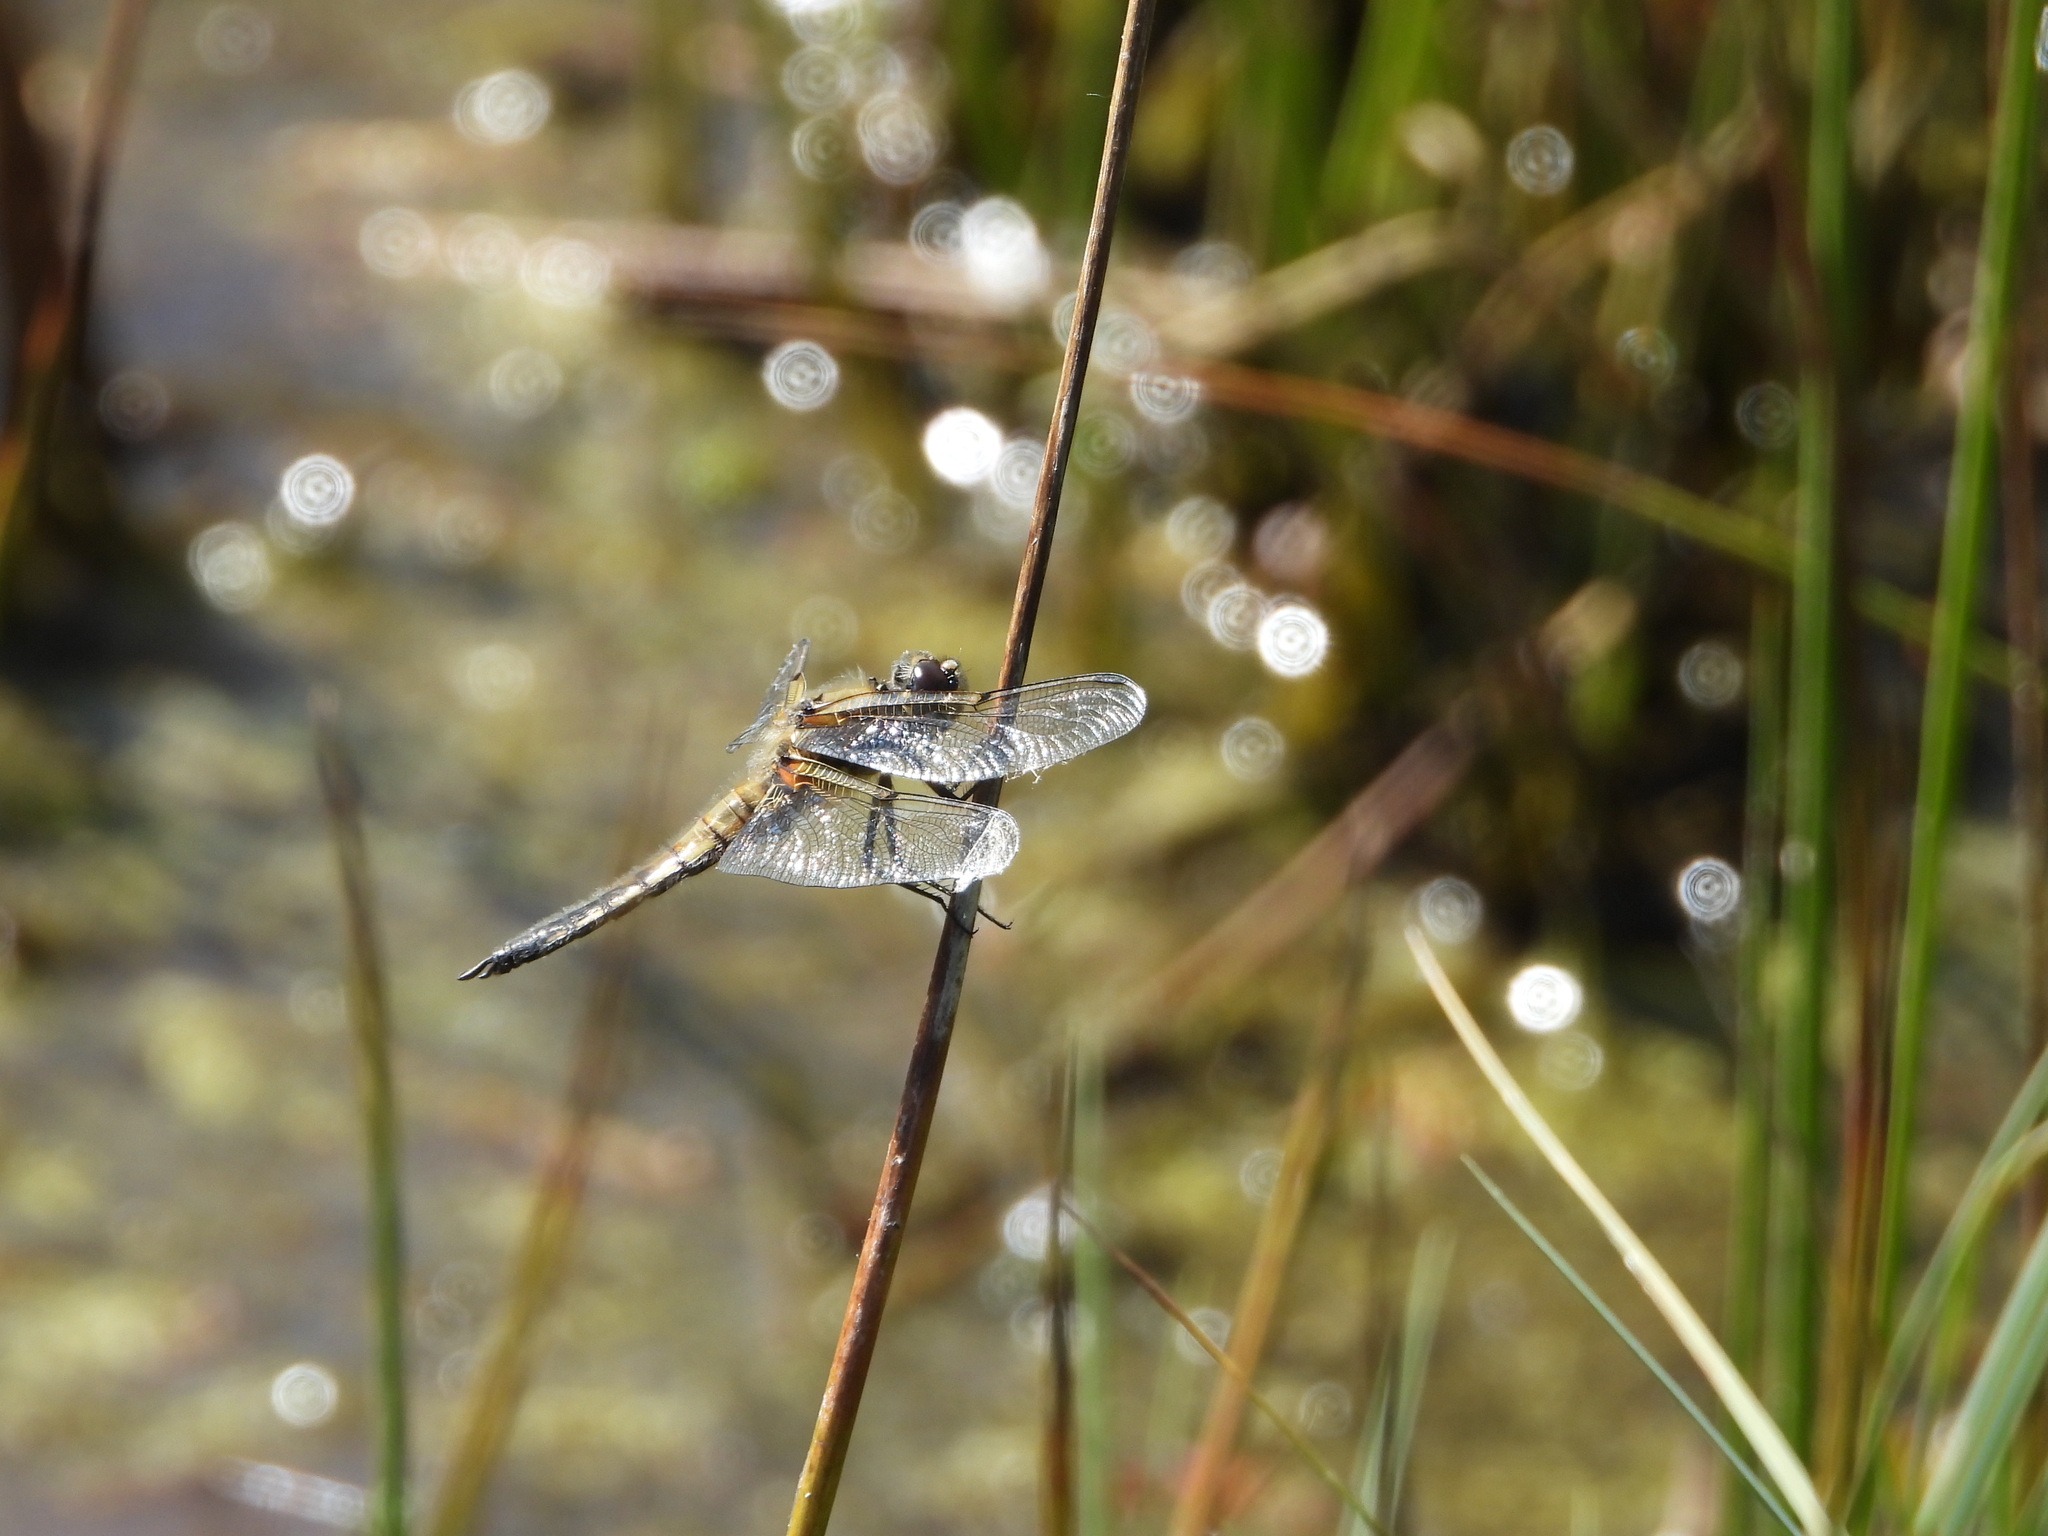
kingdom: Animalia
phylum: Arthropoda
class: Insecta
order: Odonata
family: Libellulidae
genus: Libellula
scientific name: Libellula quadrimaculata
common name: Four-spotted chaser
